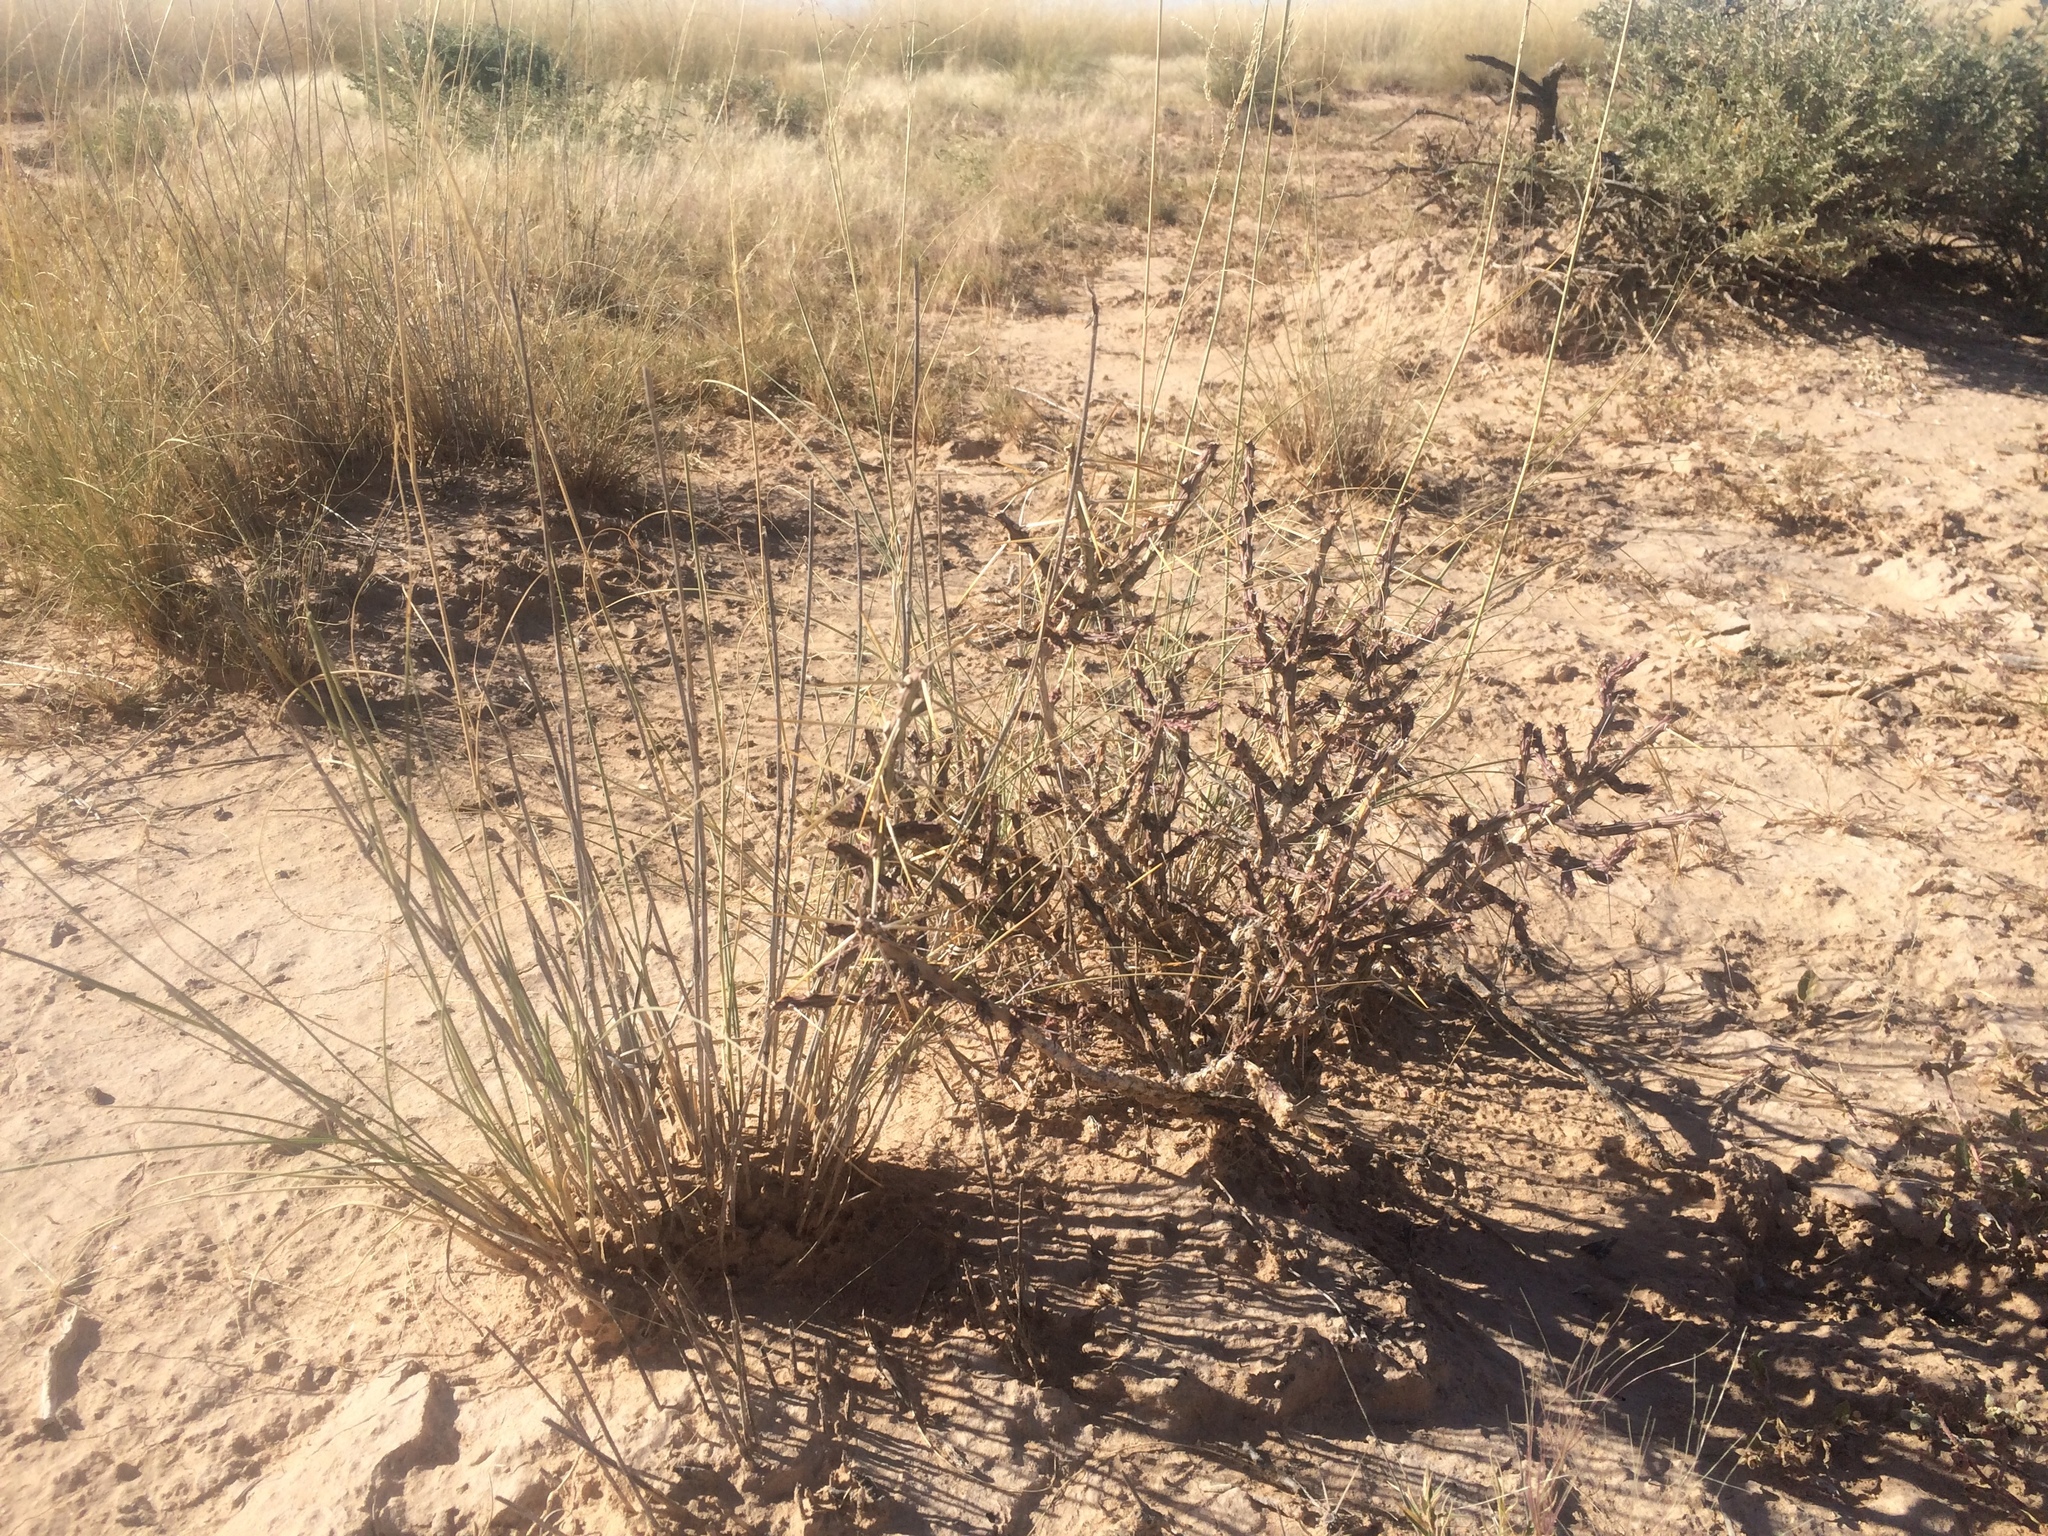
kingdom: Plantae
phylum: Tracheophyta
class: Magnoliopsida
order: Caryophyllales
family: Cactaceae
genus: Cylindropuntia
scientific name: Cylindropuntia leptocaulis
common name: Christmas cactus
